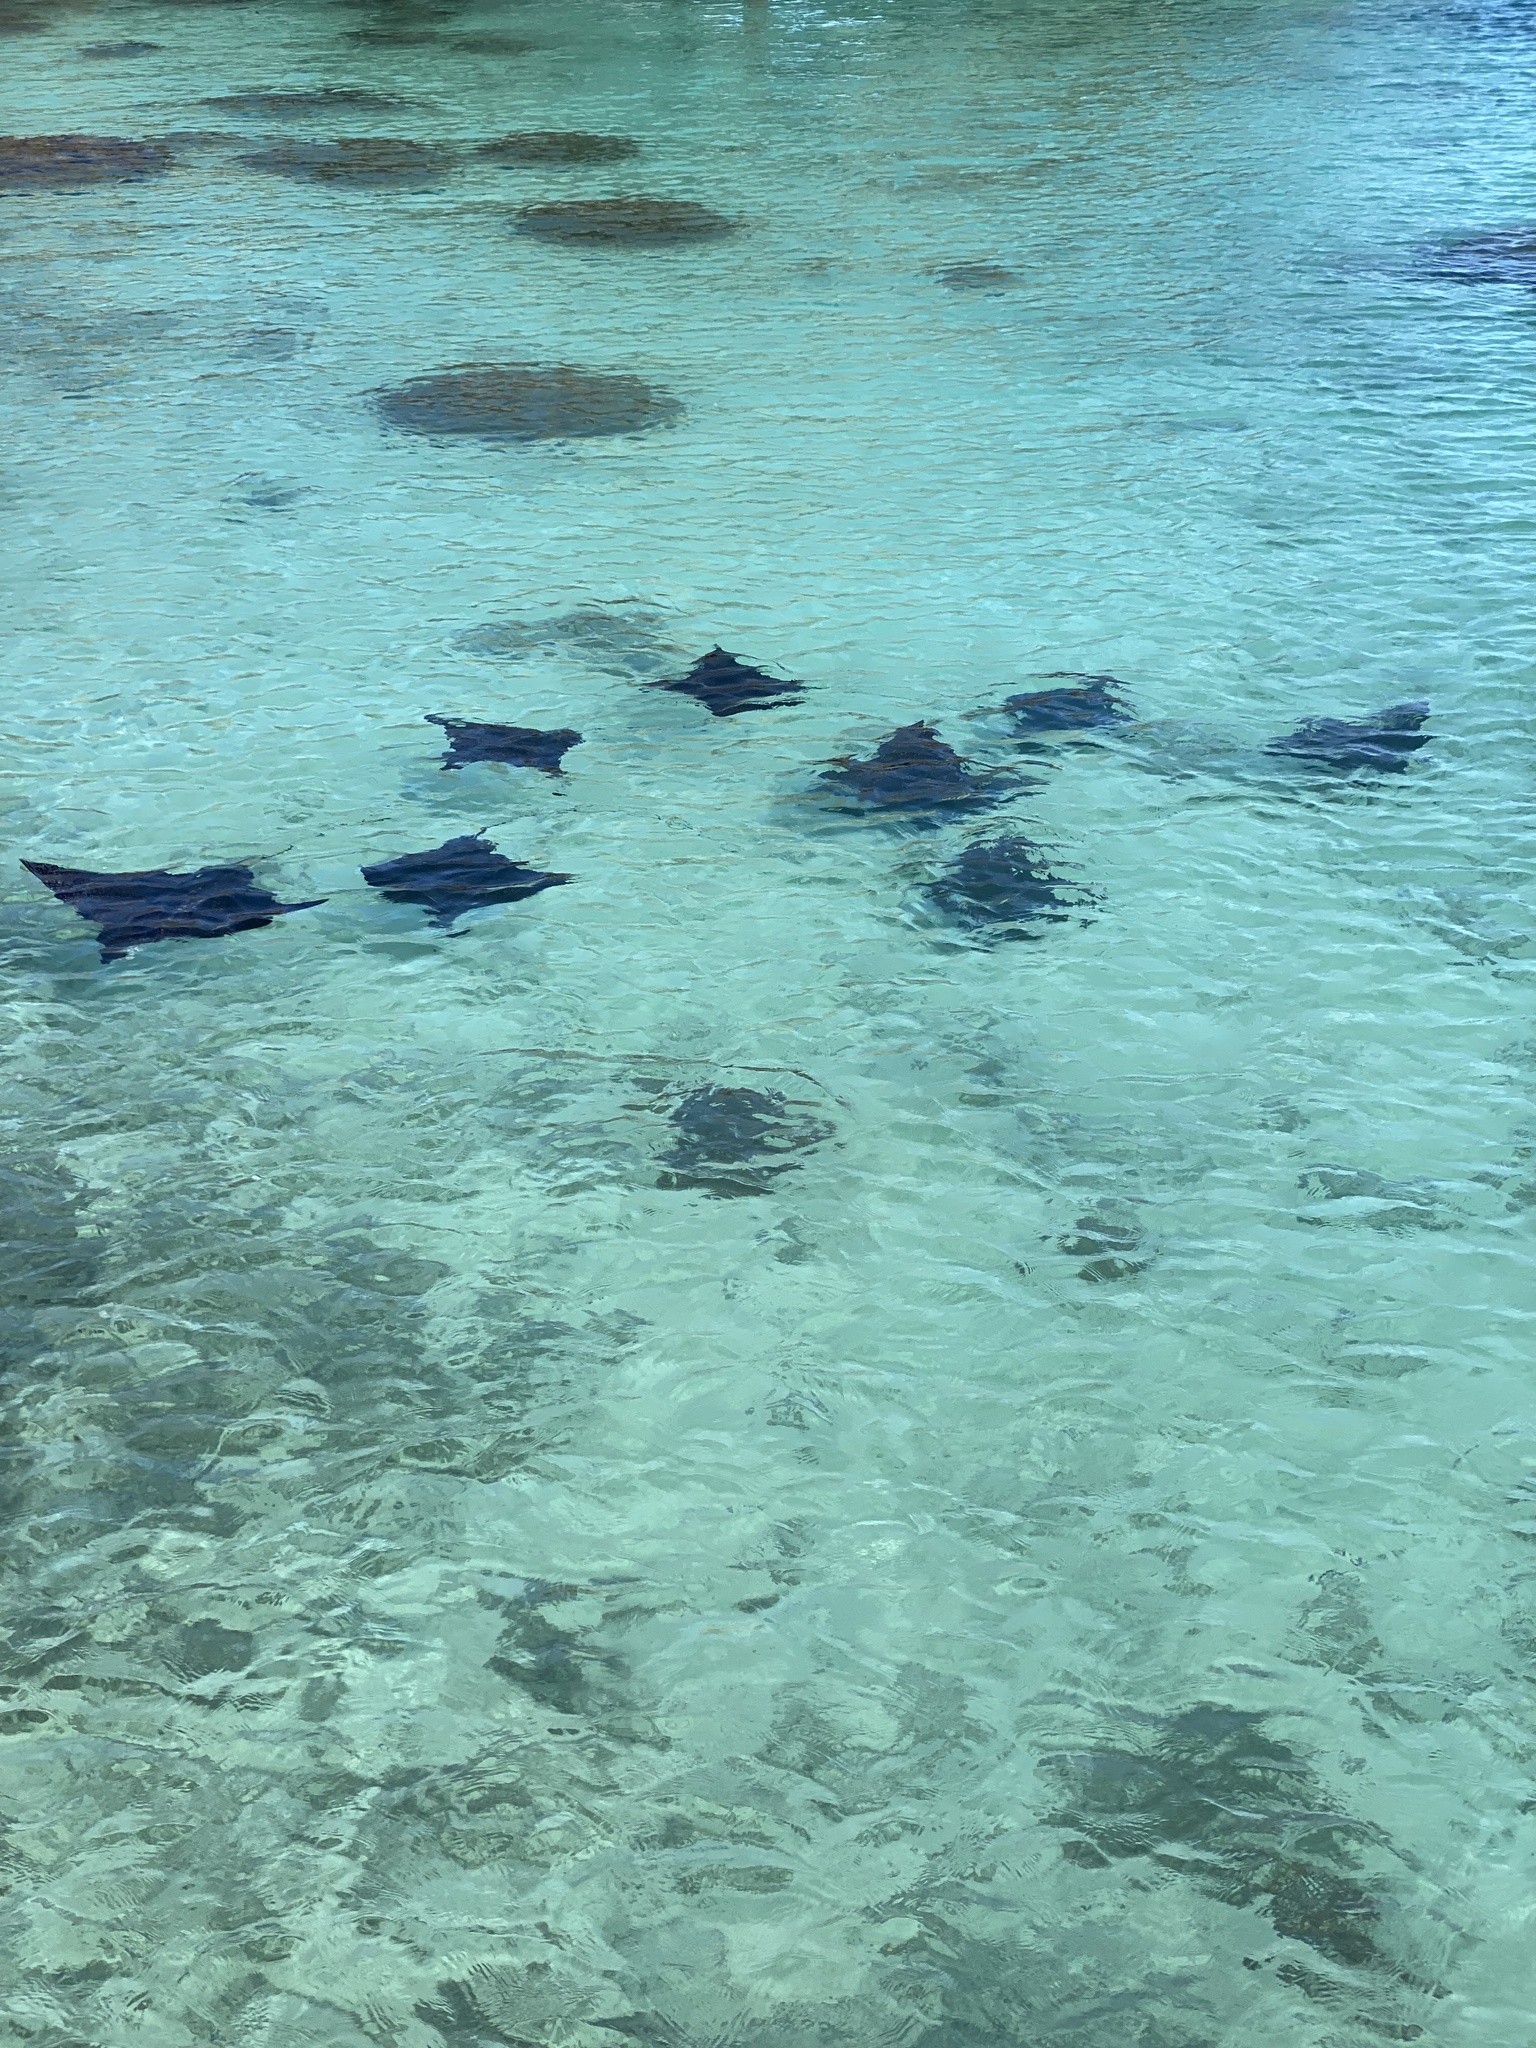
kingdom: Animalia
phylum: Chordata
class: Elasmobranchii
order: Myliobatiformes
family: Myliobatidae
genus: Aetobatus
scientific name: Aetobatus ocellatus
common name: Ocellated eagle ray
